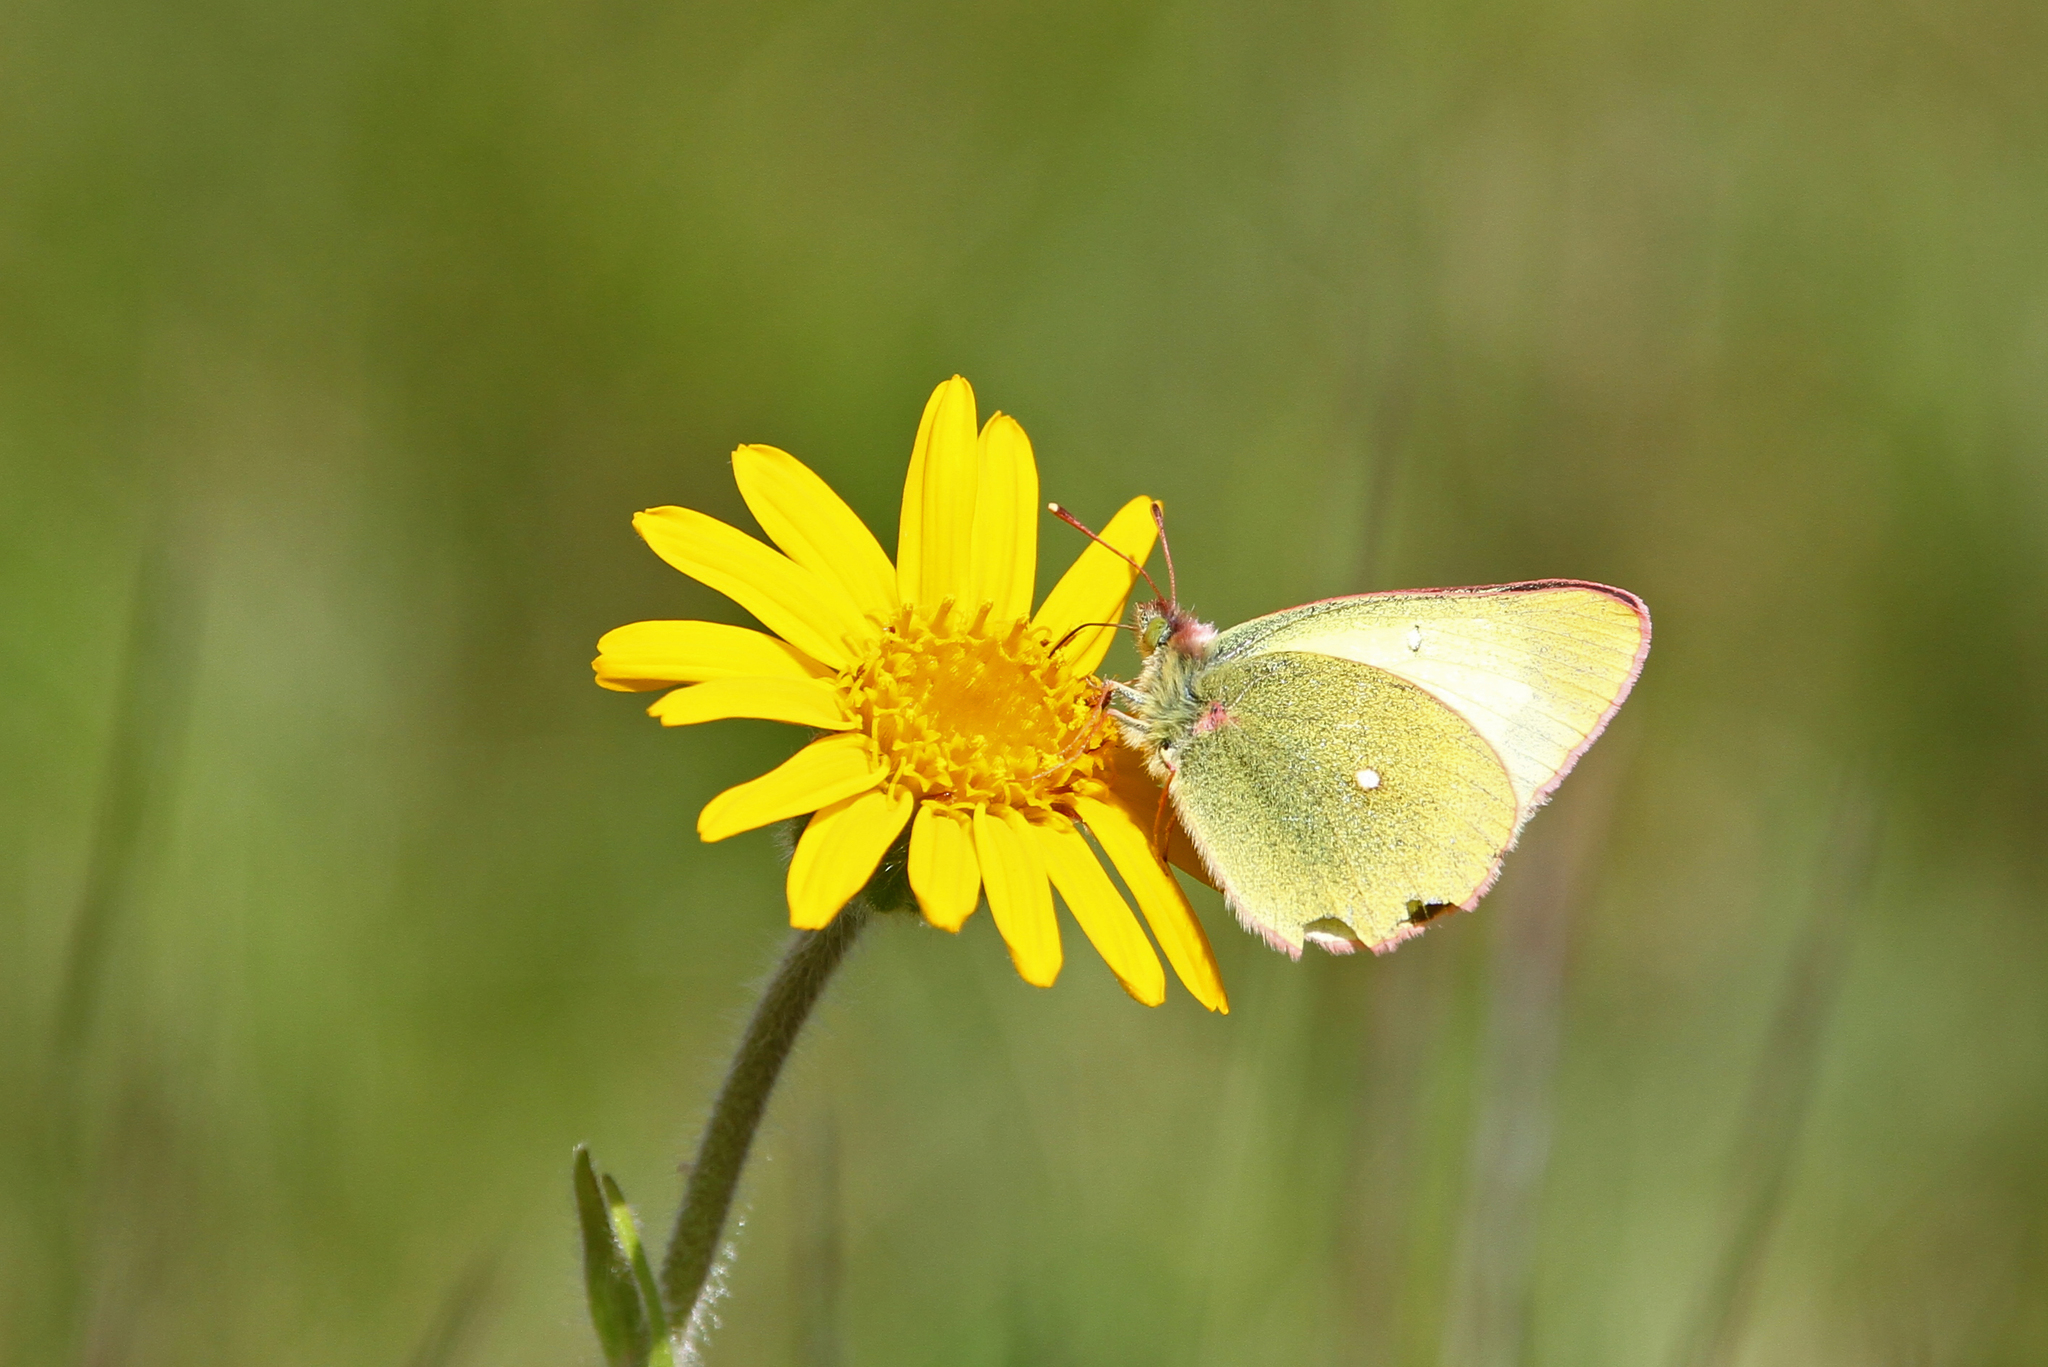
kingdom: Animalia
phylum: Arthropoda
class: Insecta
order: Lepidoptera
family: Pieridae
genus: Colias
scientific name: Colias palaeno
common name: Moorland clouded yellow
